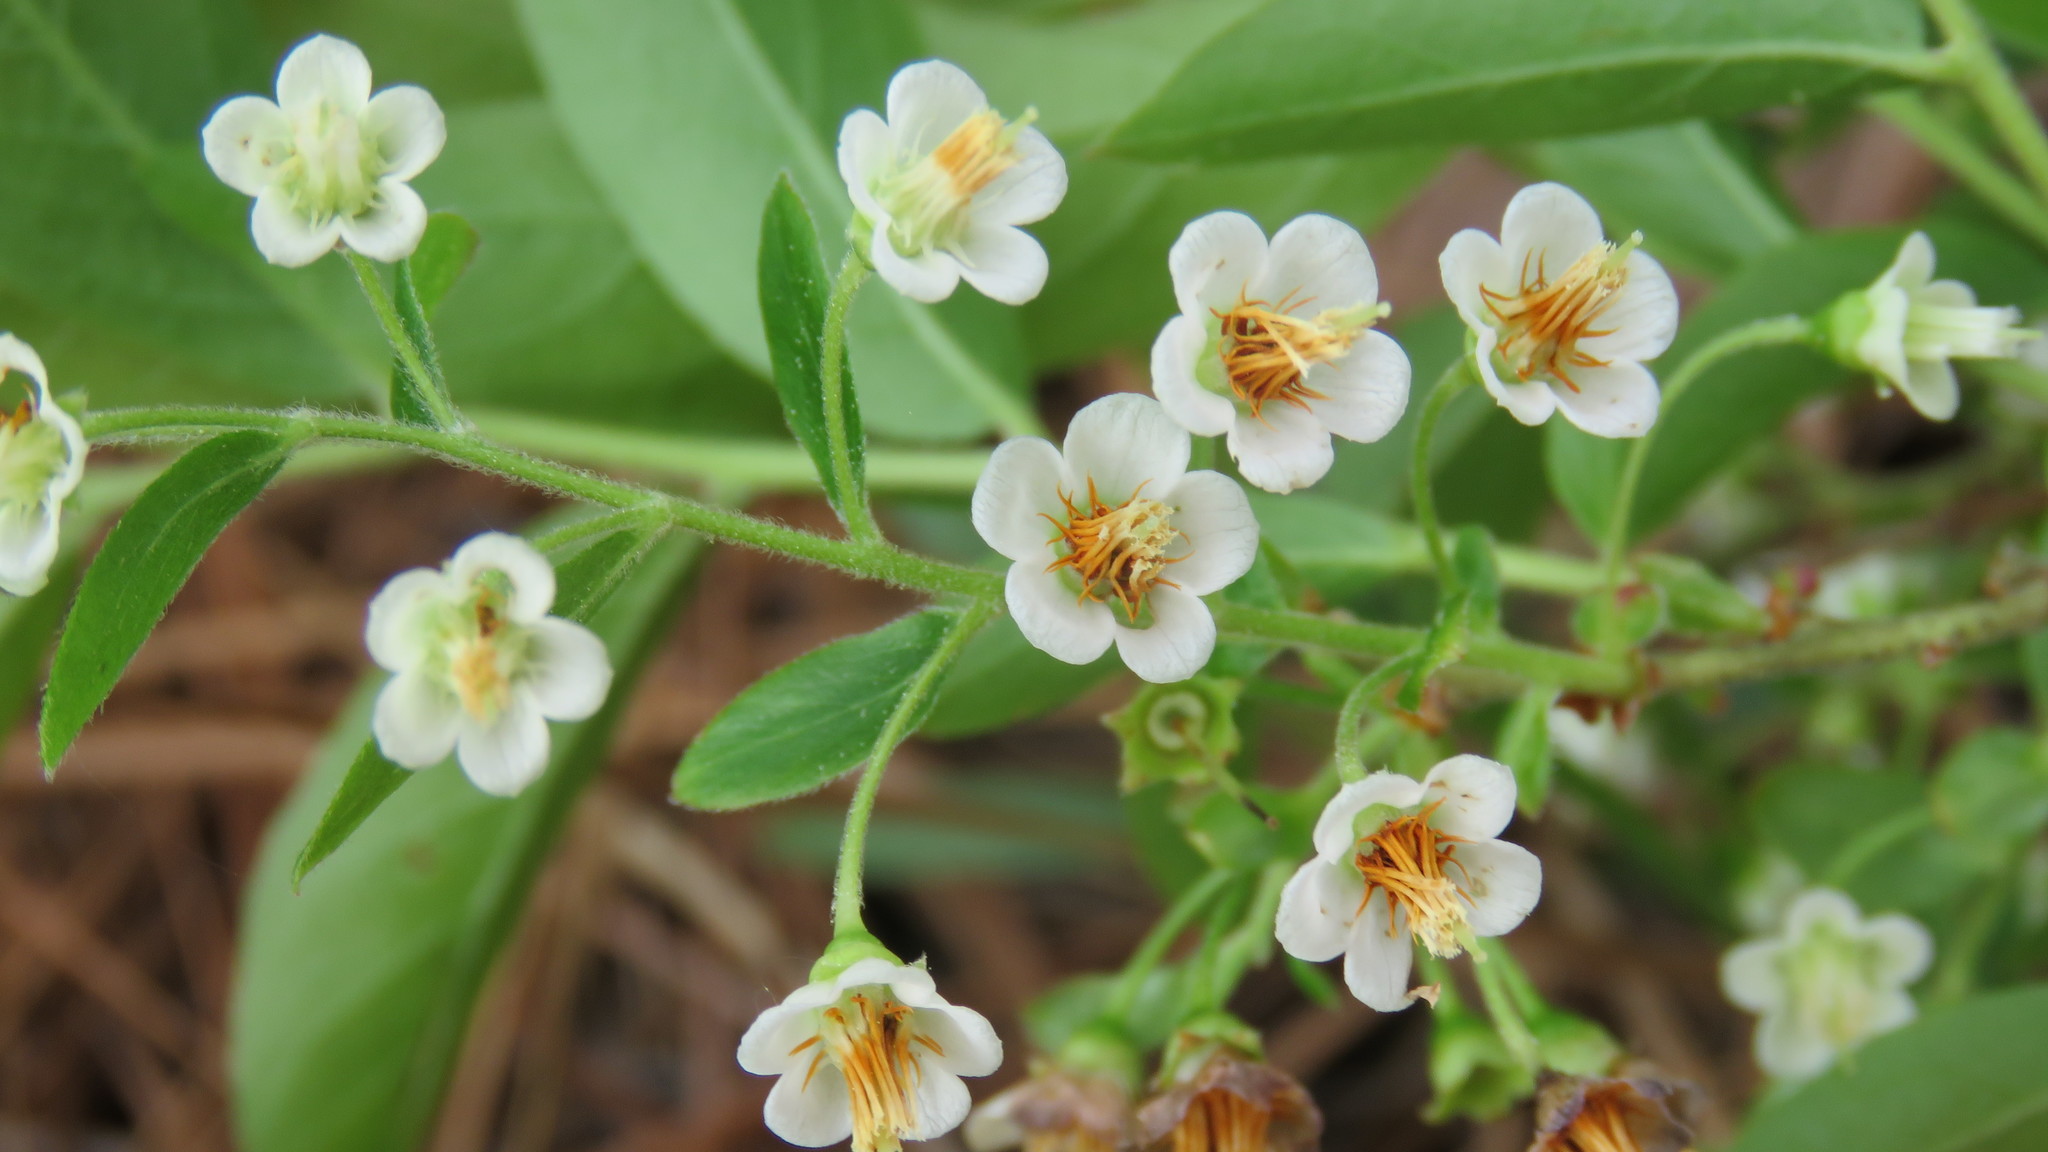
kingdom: Plantae
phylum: Tracheophyta
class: Magnoliopsida
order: Ericales
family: Ericaceae
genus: Vaccinium
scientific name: Vaccinium stamineum
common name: Deerberry
